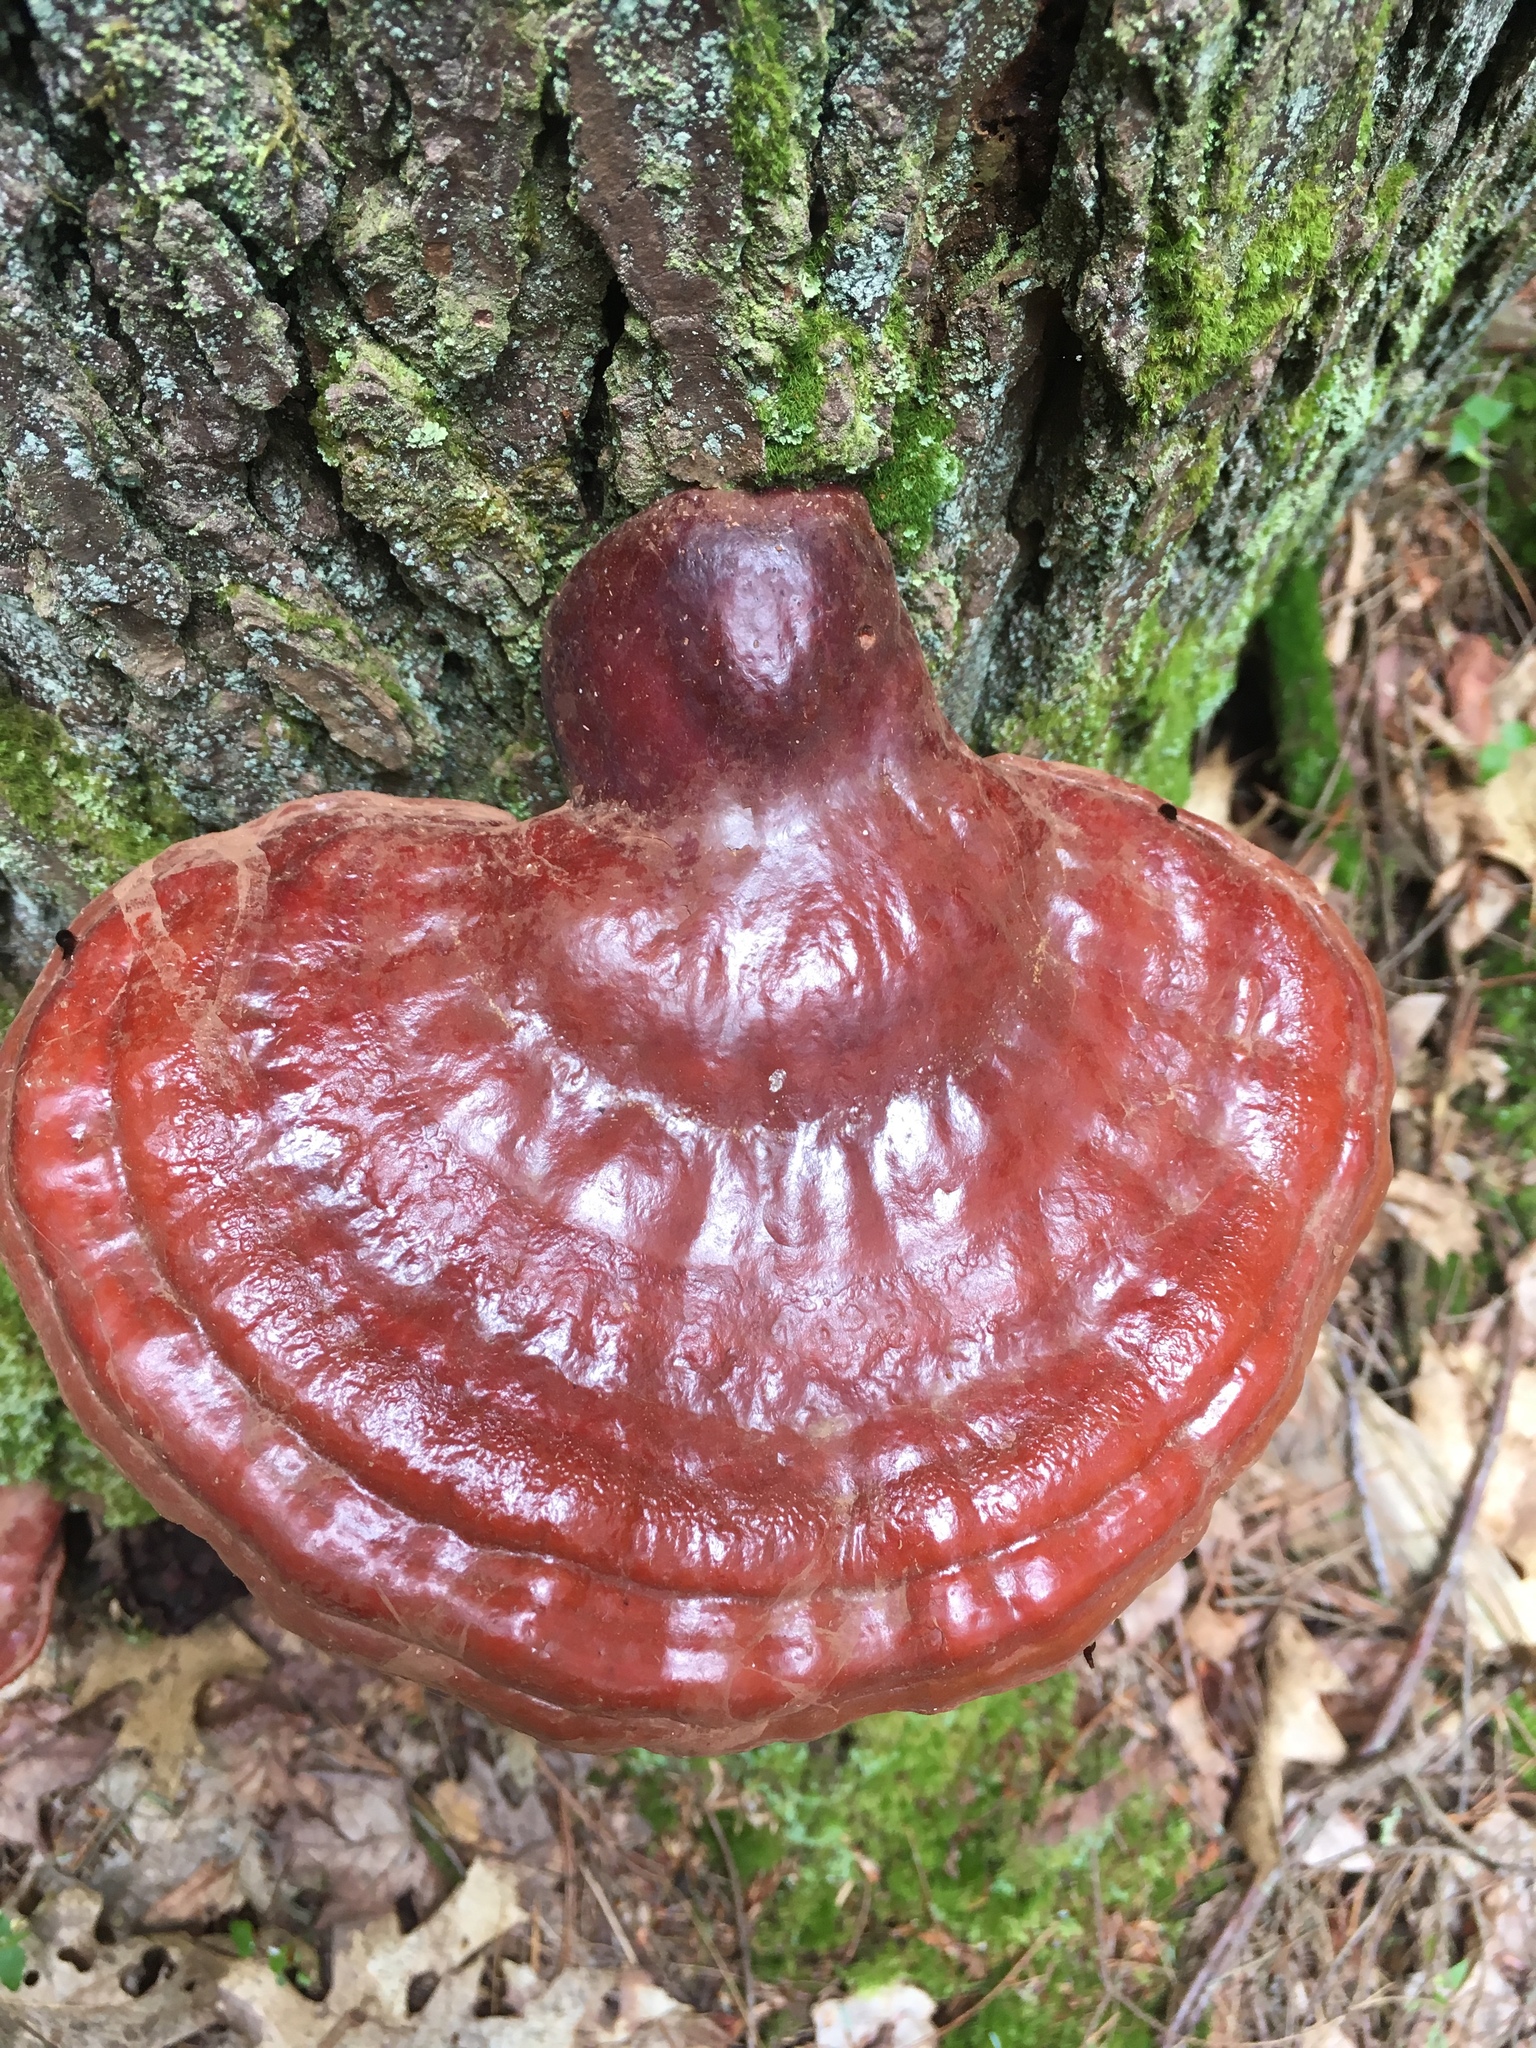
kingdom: Fungi
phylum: Basidiomycota
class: Agaricomycetes
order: Polyporales
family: Polyporaceae
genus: Ganoderma
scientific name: Ganoderma tsugae
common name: Hemlock varnish shelf
